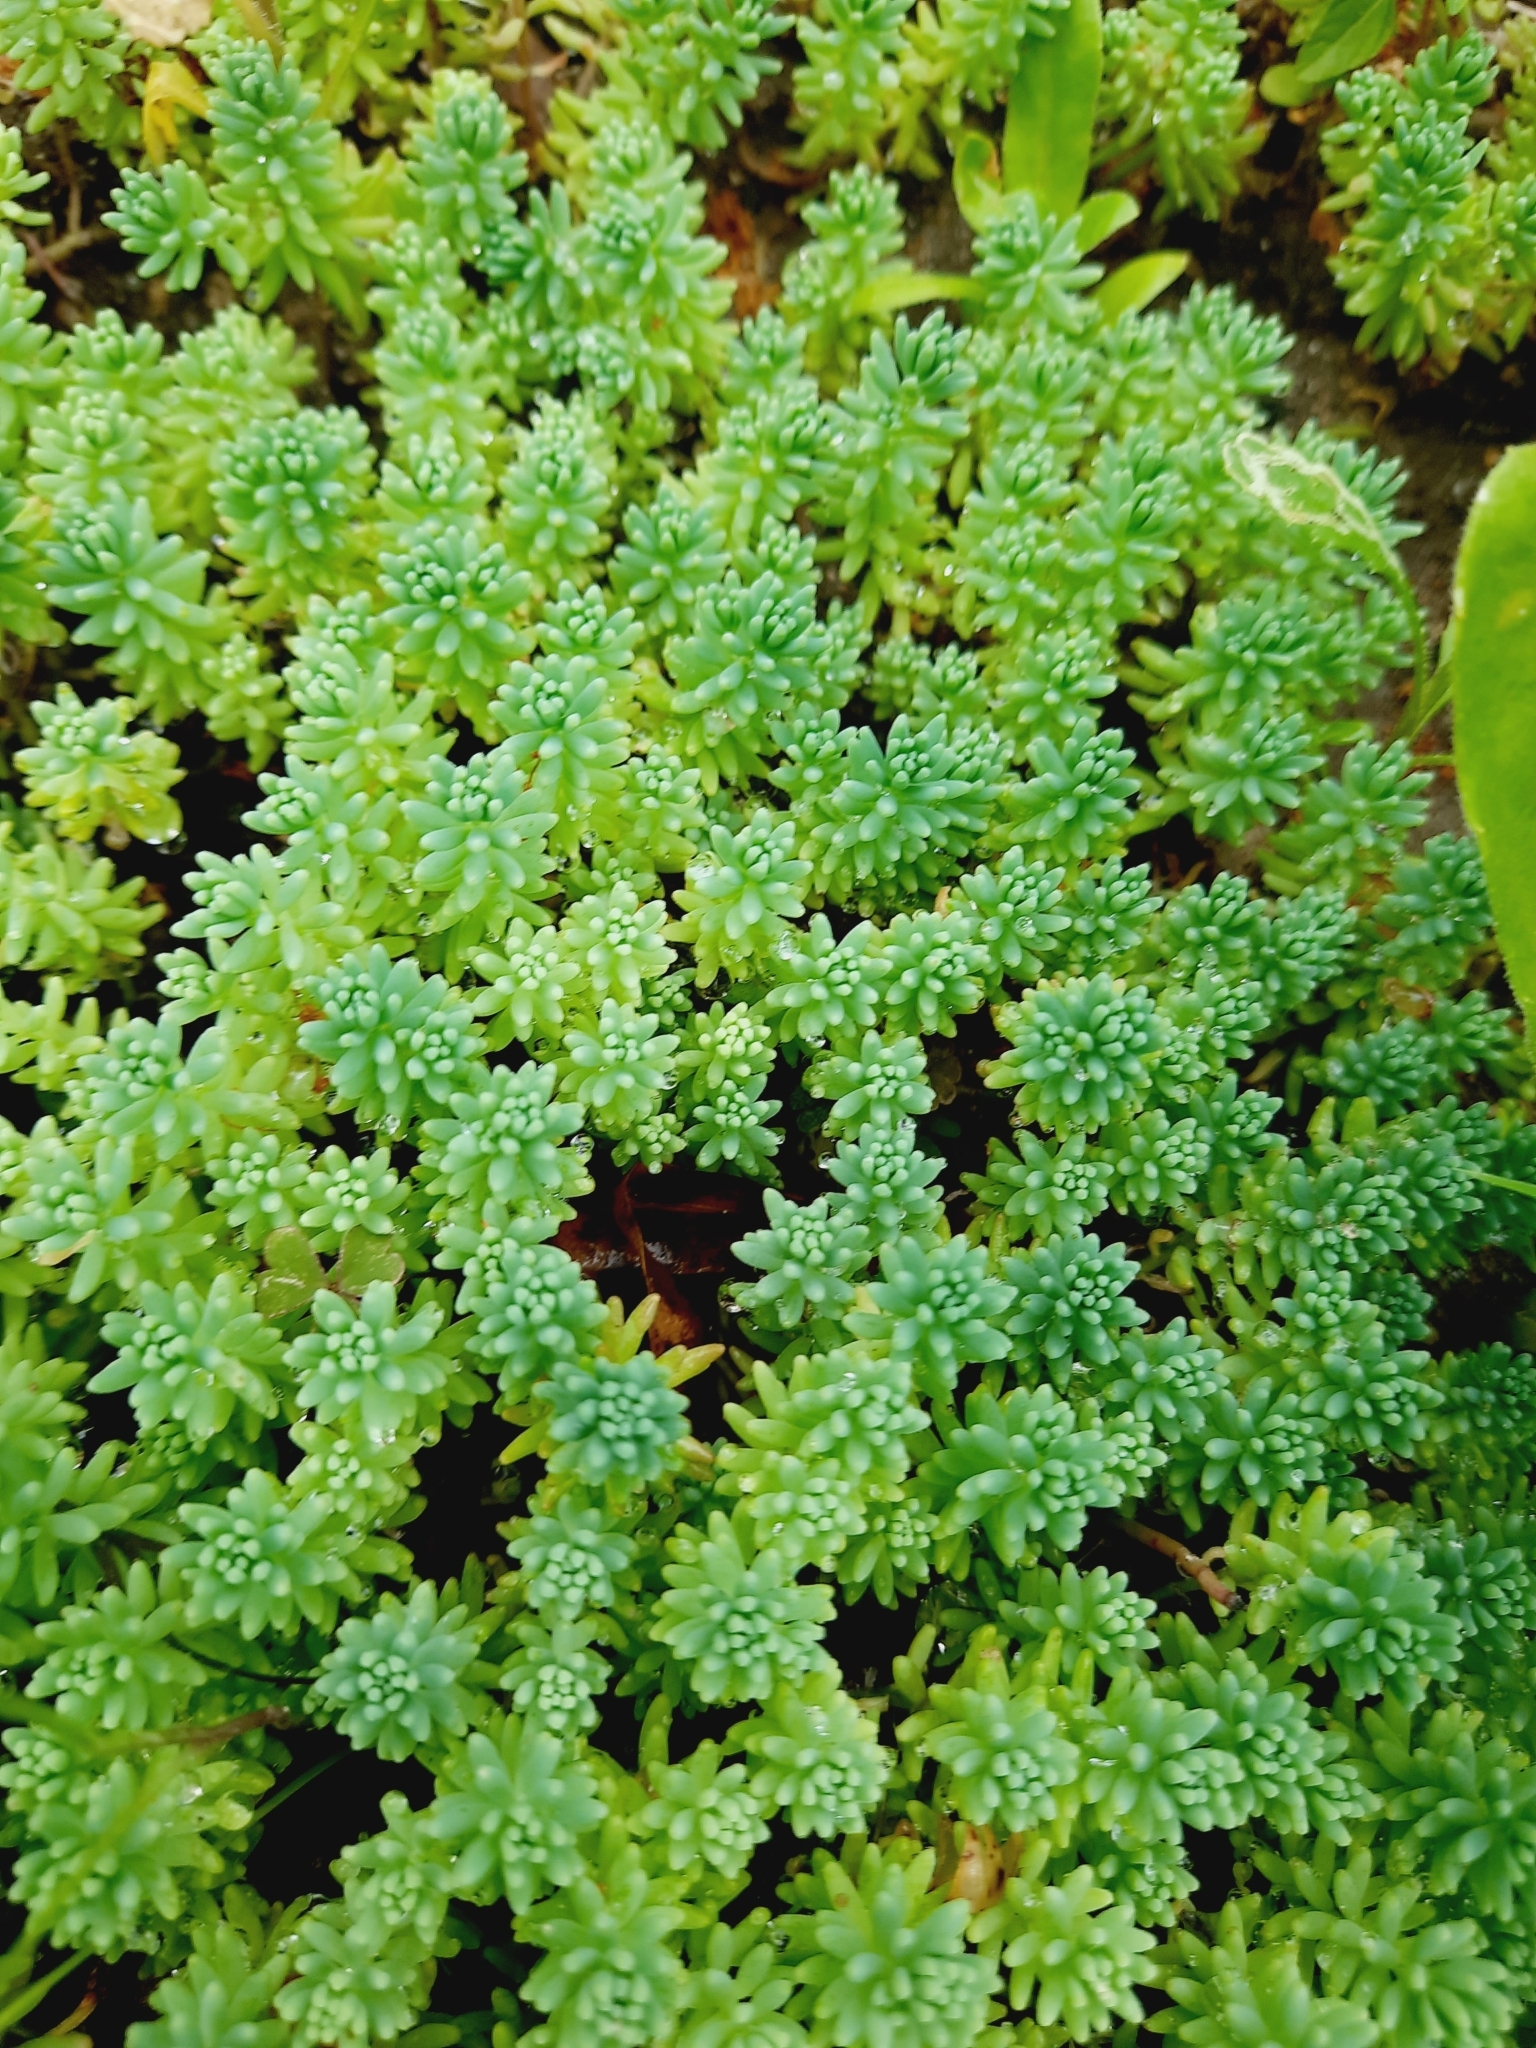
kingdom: Plantae
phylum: Tracheophyta
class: Magnoliopsida
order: Saxifragales
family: Crassulaceae
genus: Sedum
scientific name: Sedum pallidum
